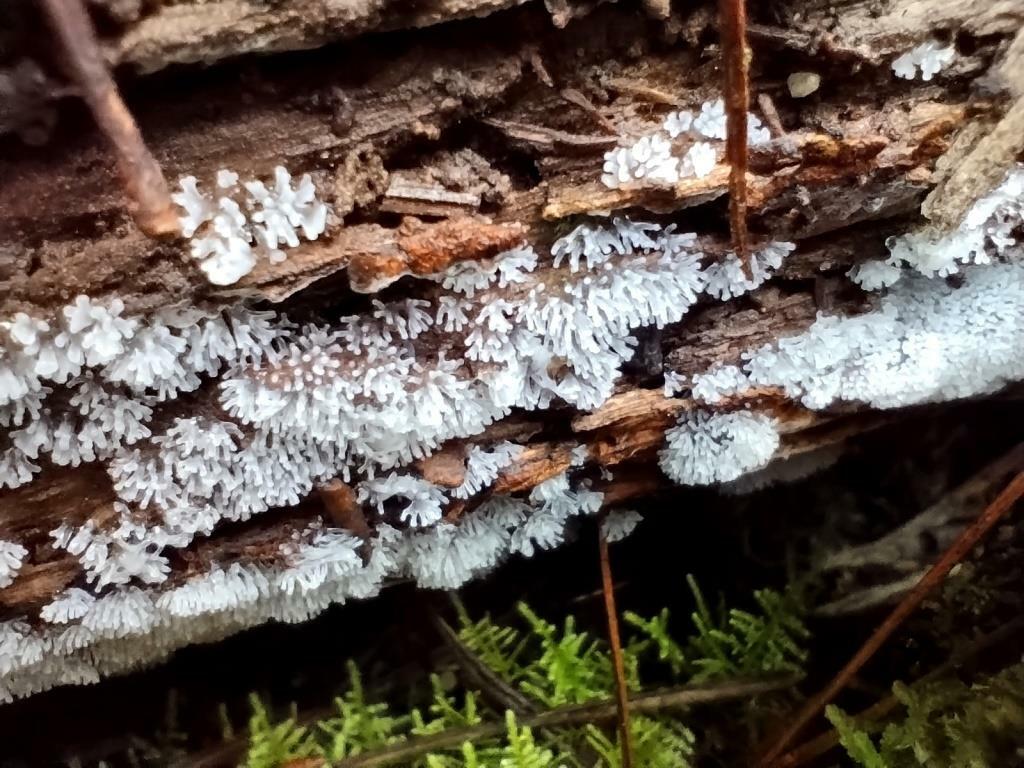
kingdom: Protozoa
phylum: Mycetozoa
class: Protosteliomycetes
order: Ceratiomyxales
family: Ceratiomyxaceae
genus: Ceratiomyxa
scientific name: Ceratiomyxa fruticulosa
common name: Honeycomb coral slime mold
